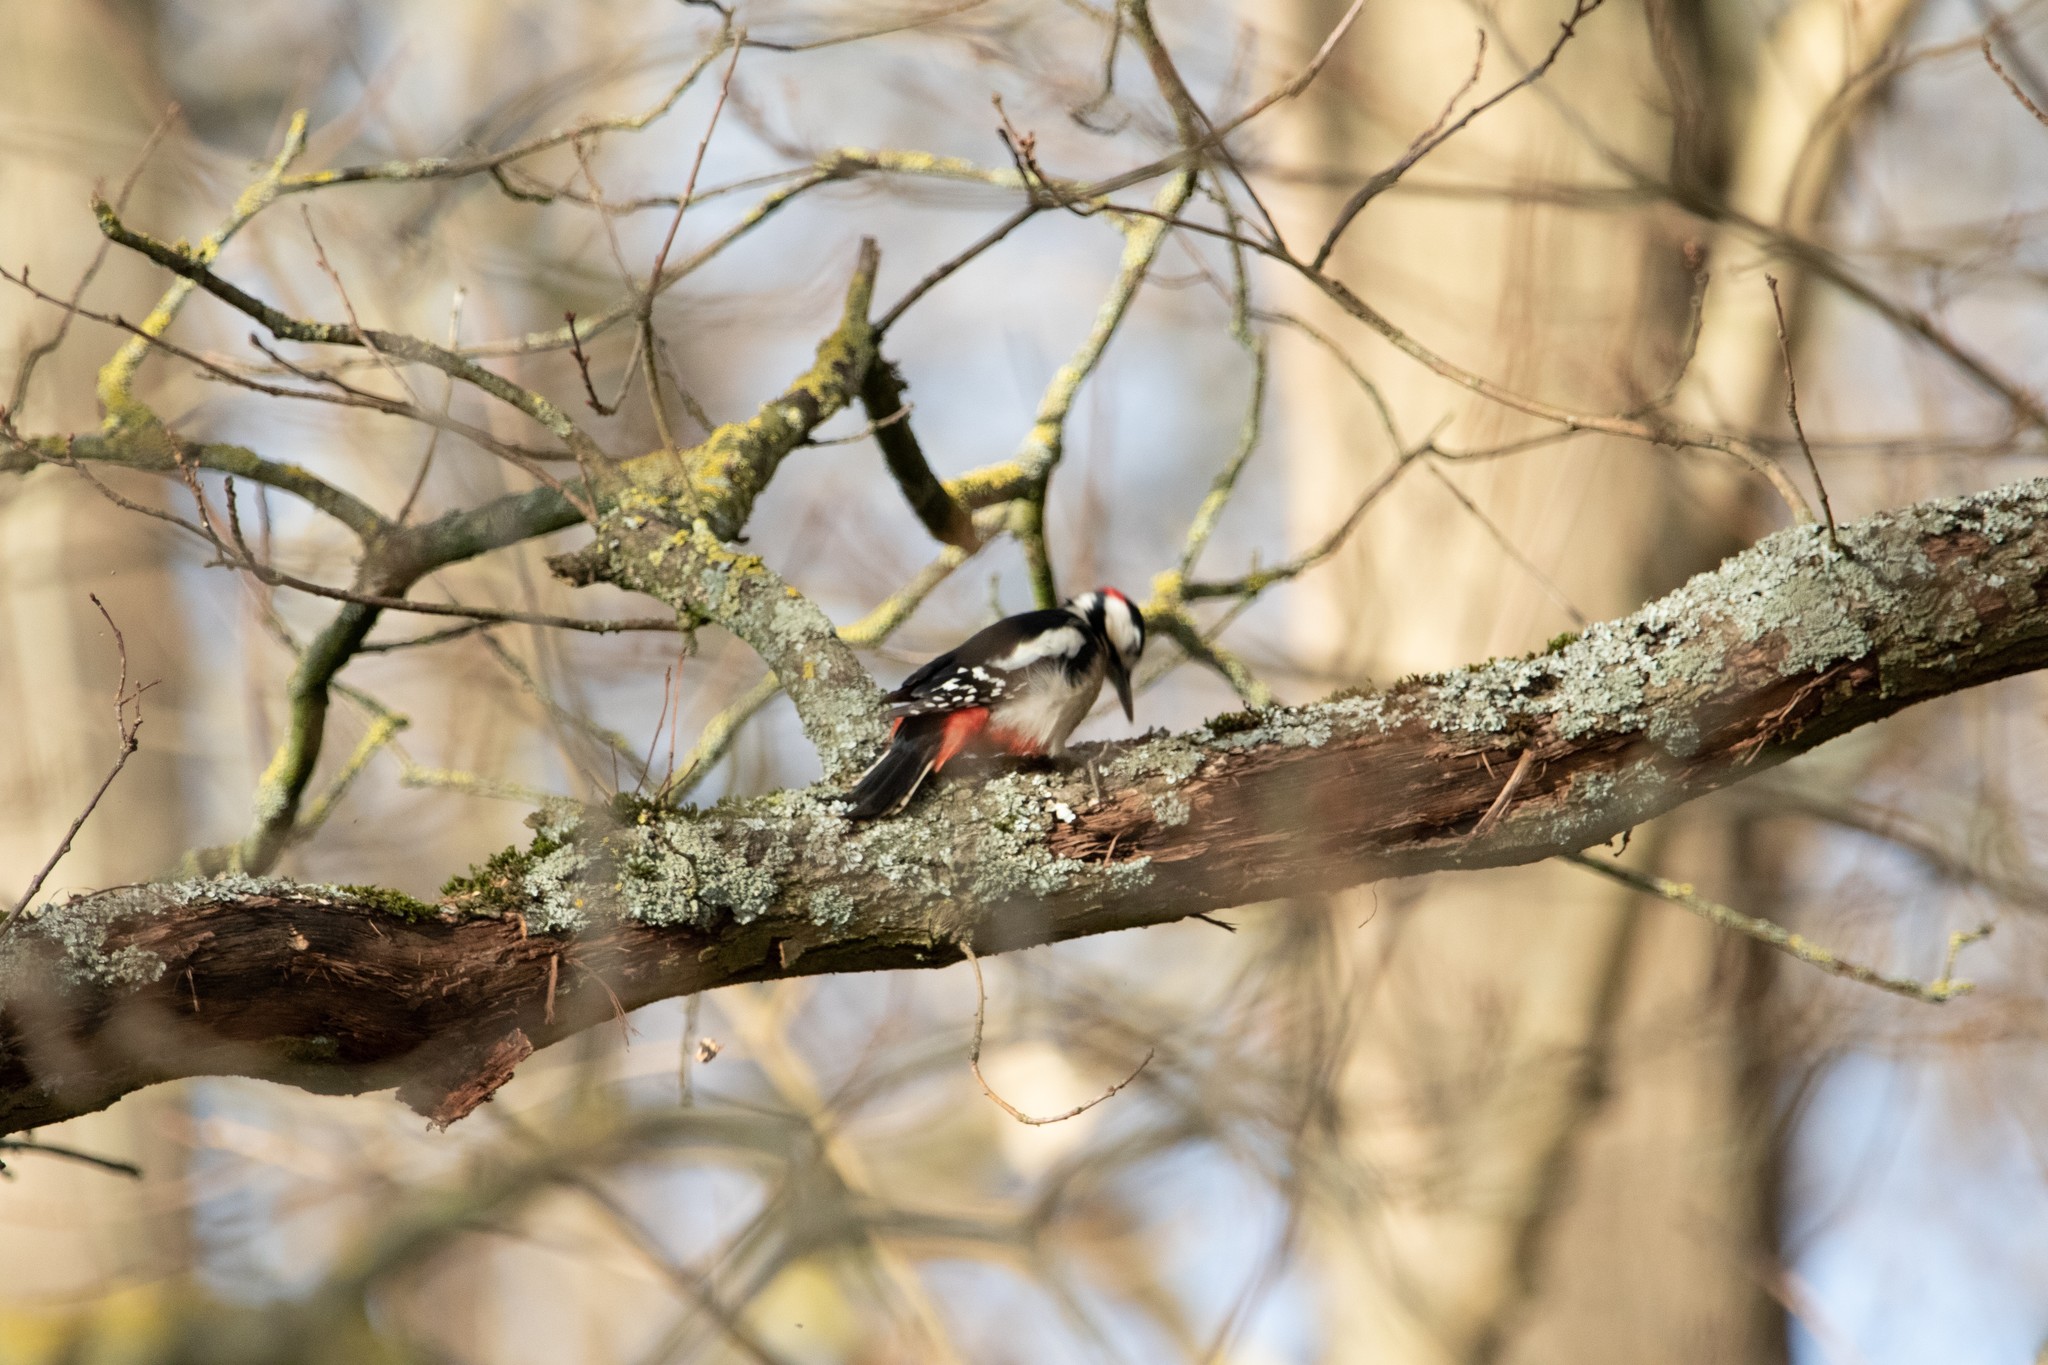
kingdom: Animalia
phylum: Chordata
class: Aves
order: Piciformes
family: Picidae
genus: Dendrocopos
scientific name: Dendrocopos major
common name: Great spotted woodpecker
